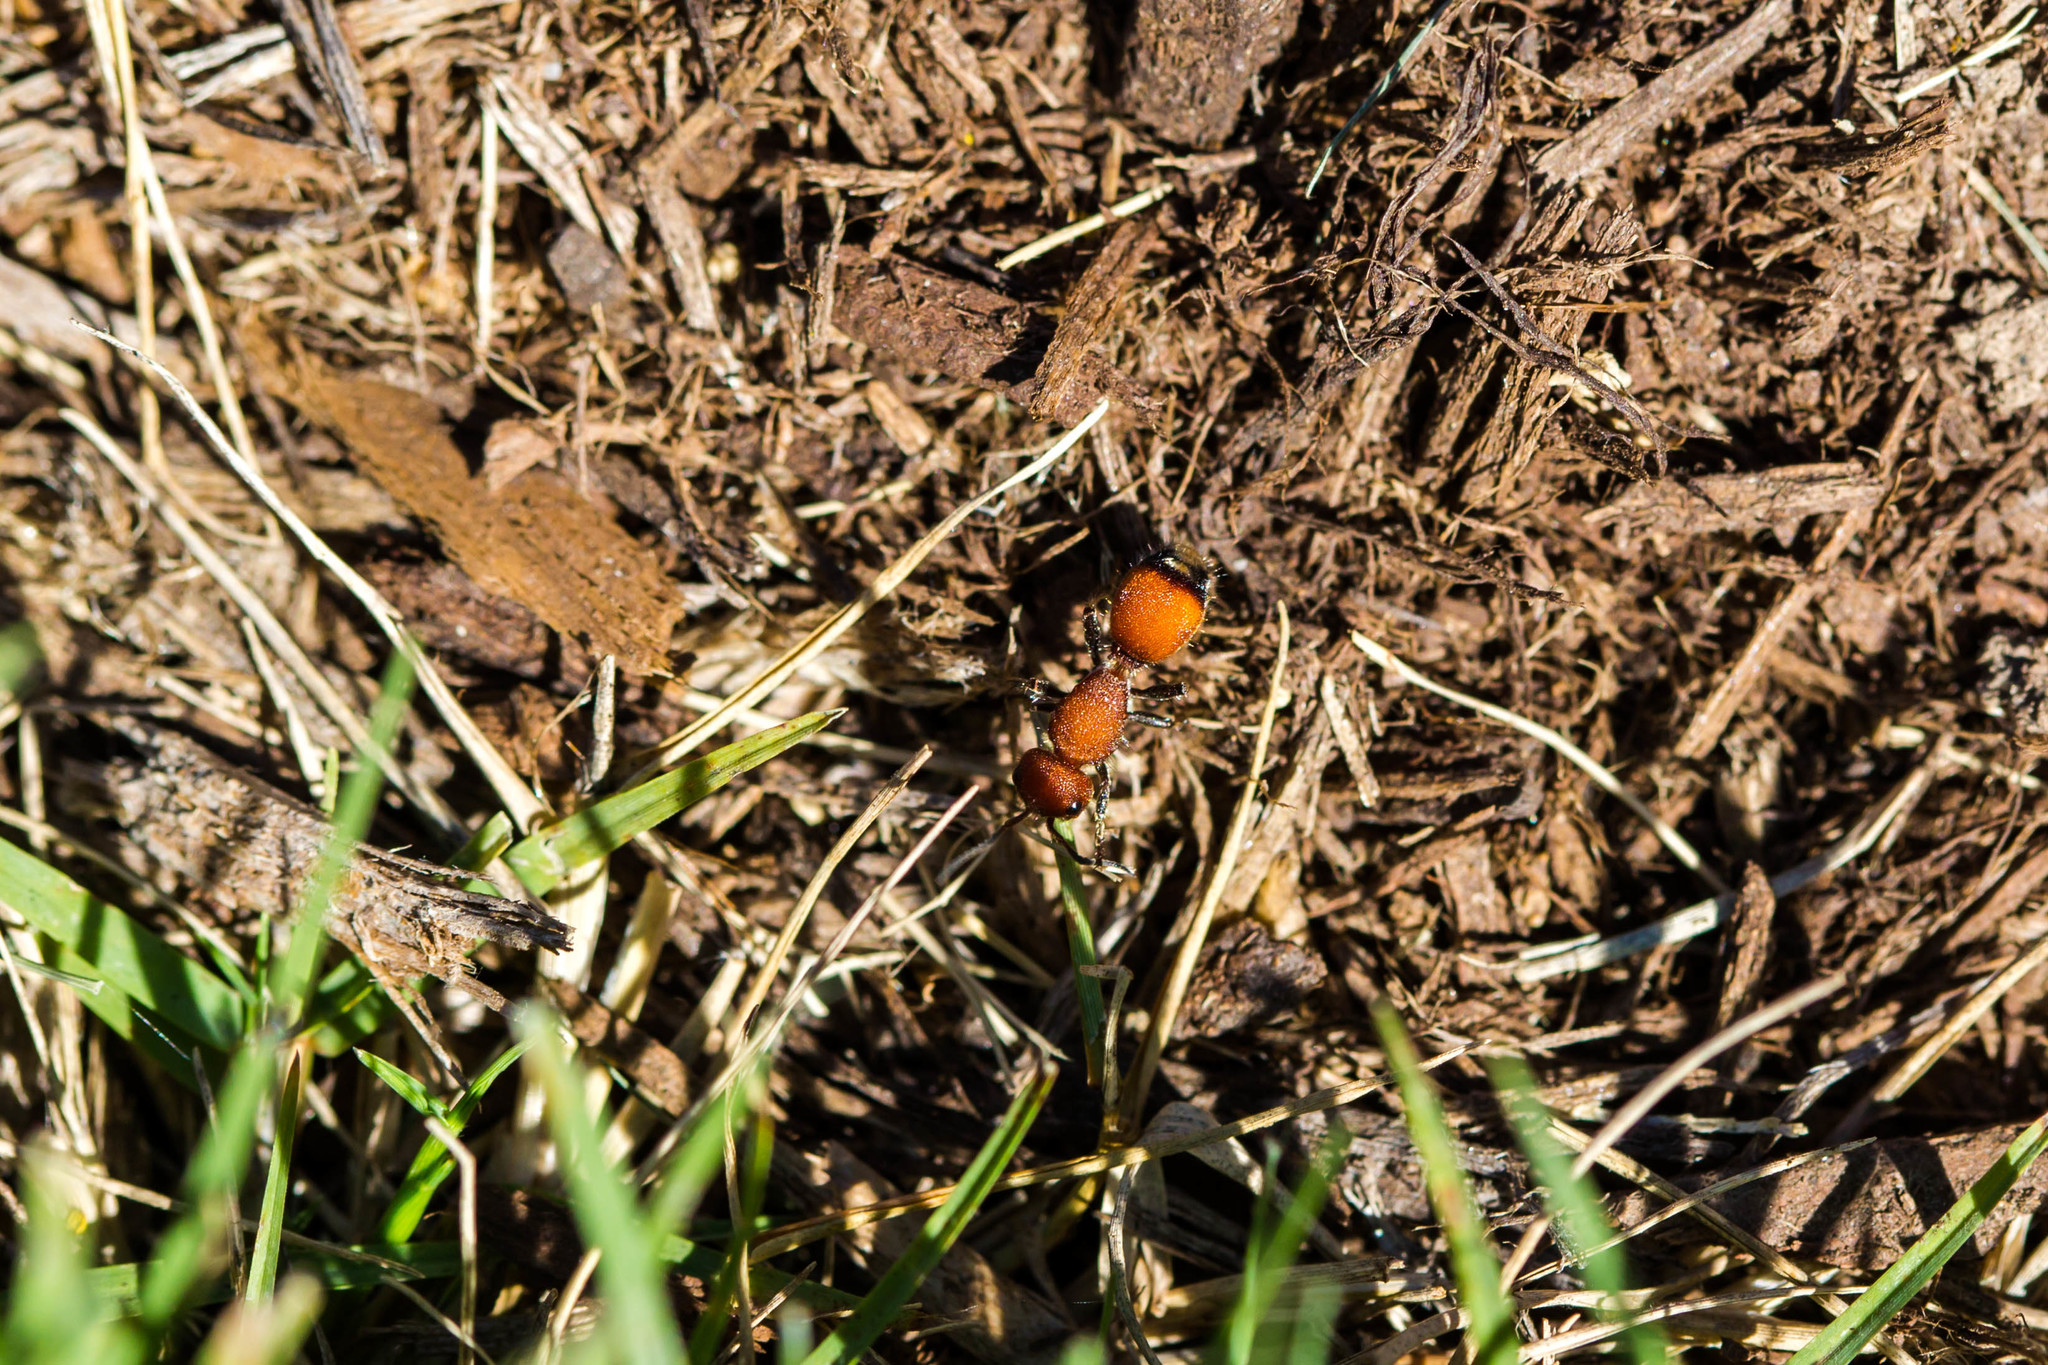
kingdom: Animalia
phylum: Arthropoda
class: Insecta
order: Hymenoptera
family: Mutillidae
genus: Dasymutilla
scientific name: Dasymutilla
